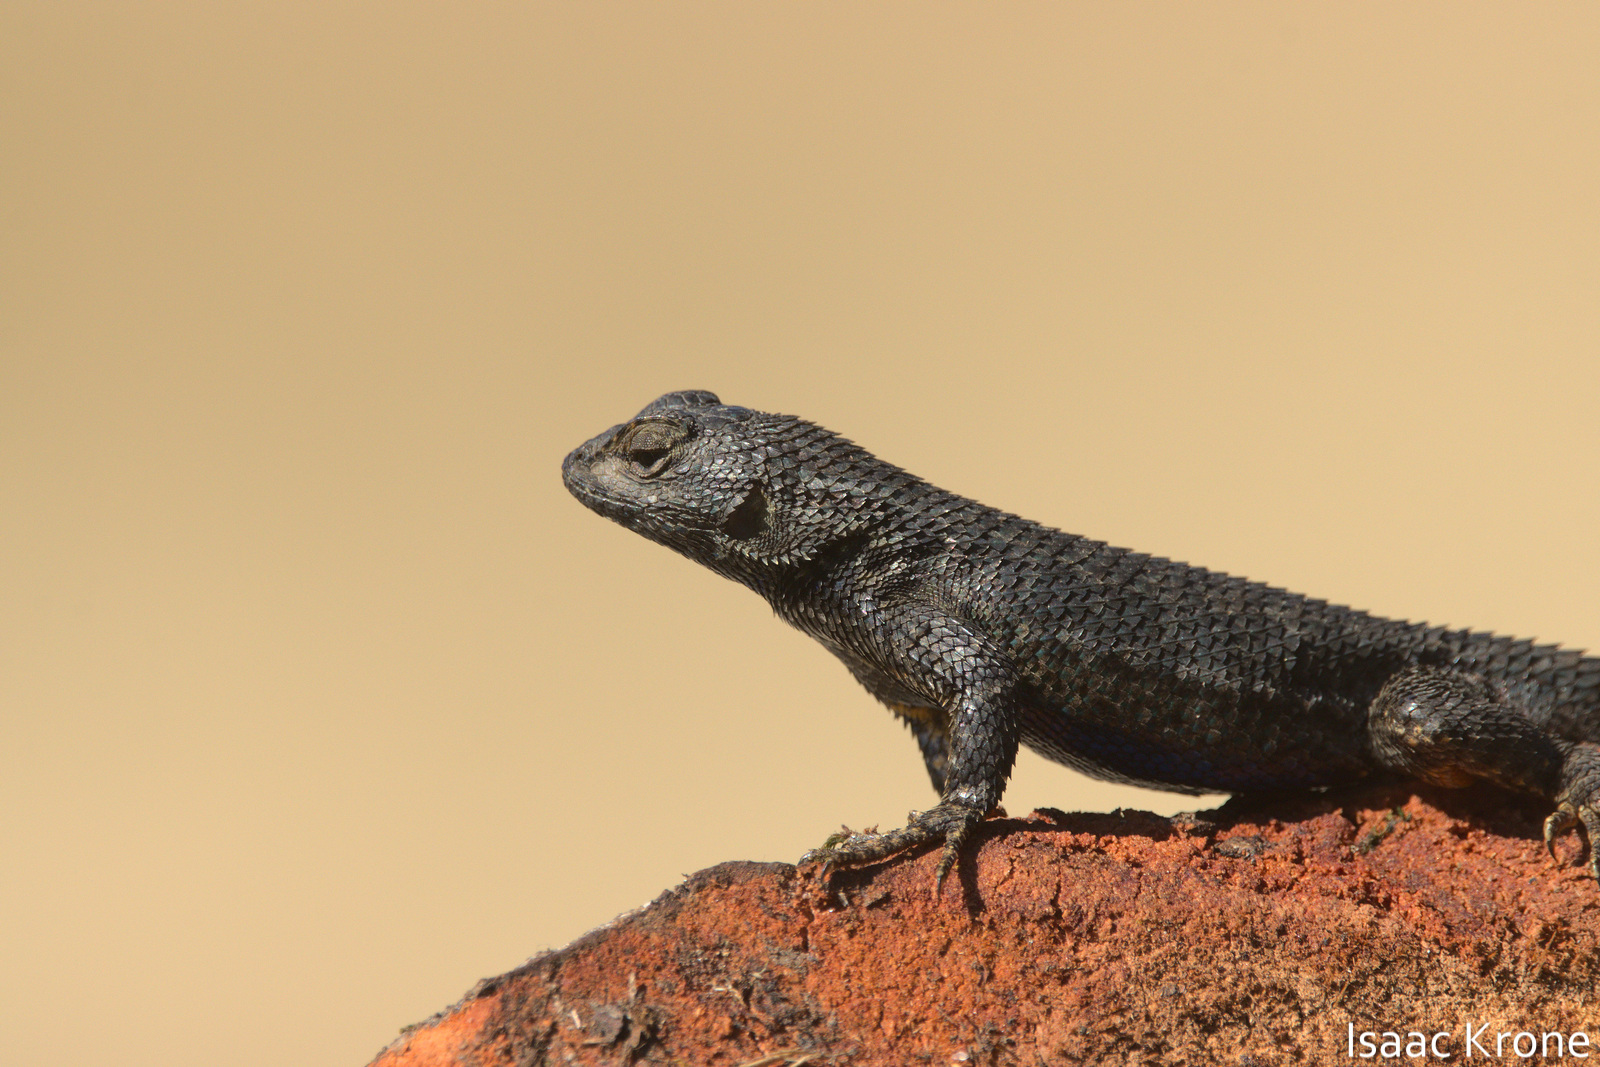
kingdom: Animalia
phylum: Chordata
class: Squamata
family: Phrynosomatidae
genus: Sceloporus
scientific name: Sceloporus occidentalis
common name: Western fence lizard
